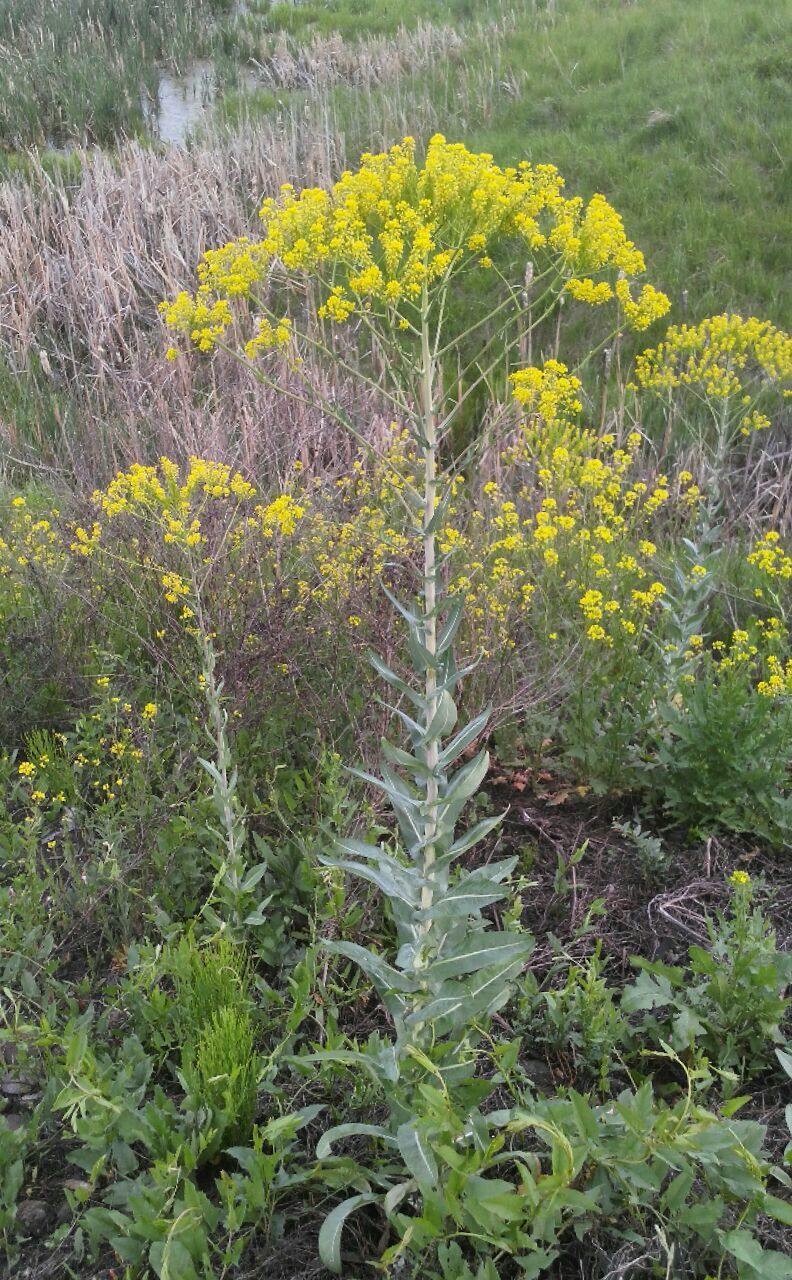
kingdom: Plantae
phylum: Tracheophyta
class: Magnoliopsida
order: Brassicales
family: Brassicaceae
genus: Isatis
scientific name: Isatis tinctoria
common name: Woad
